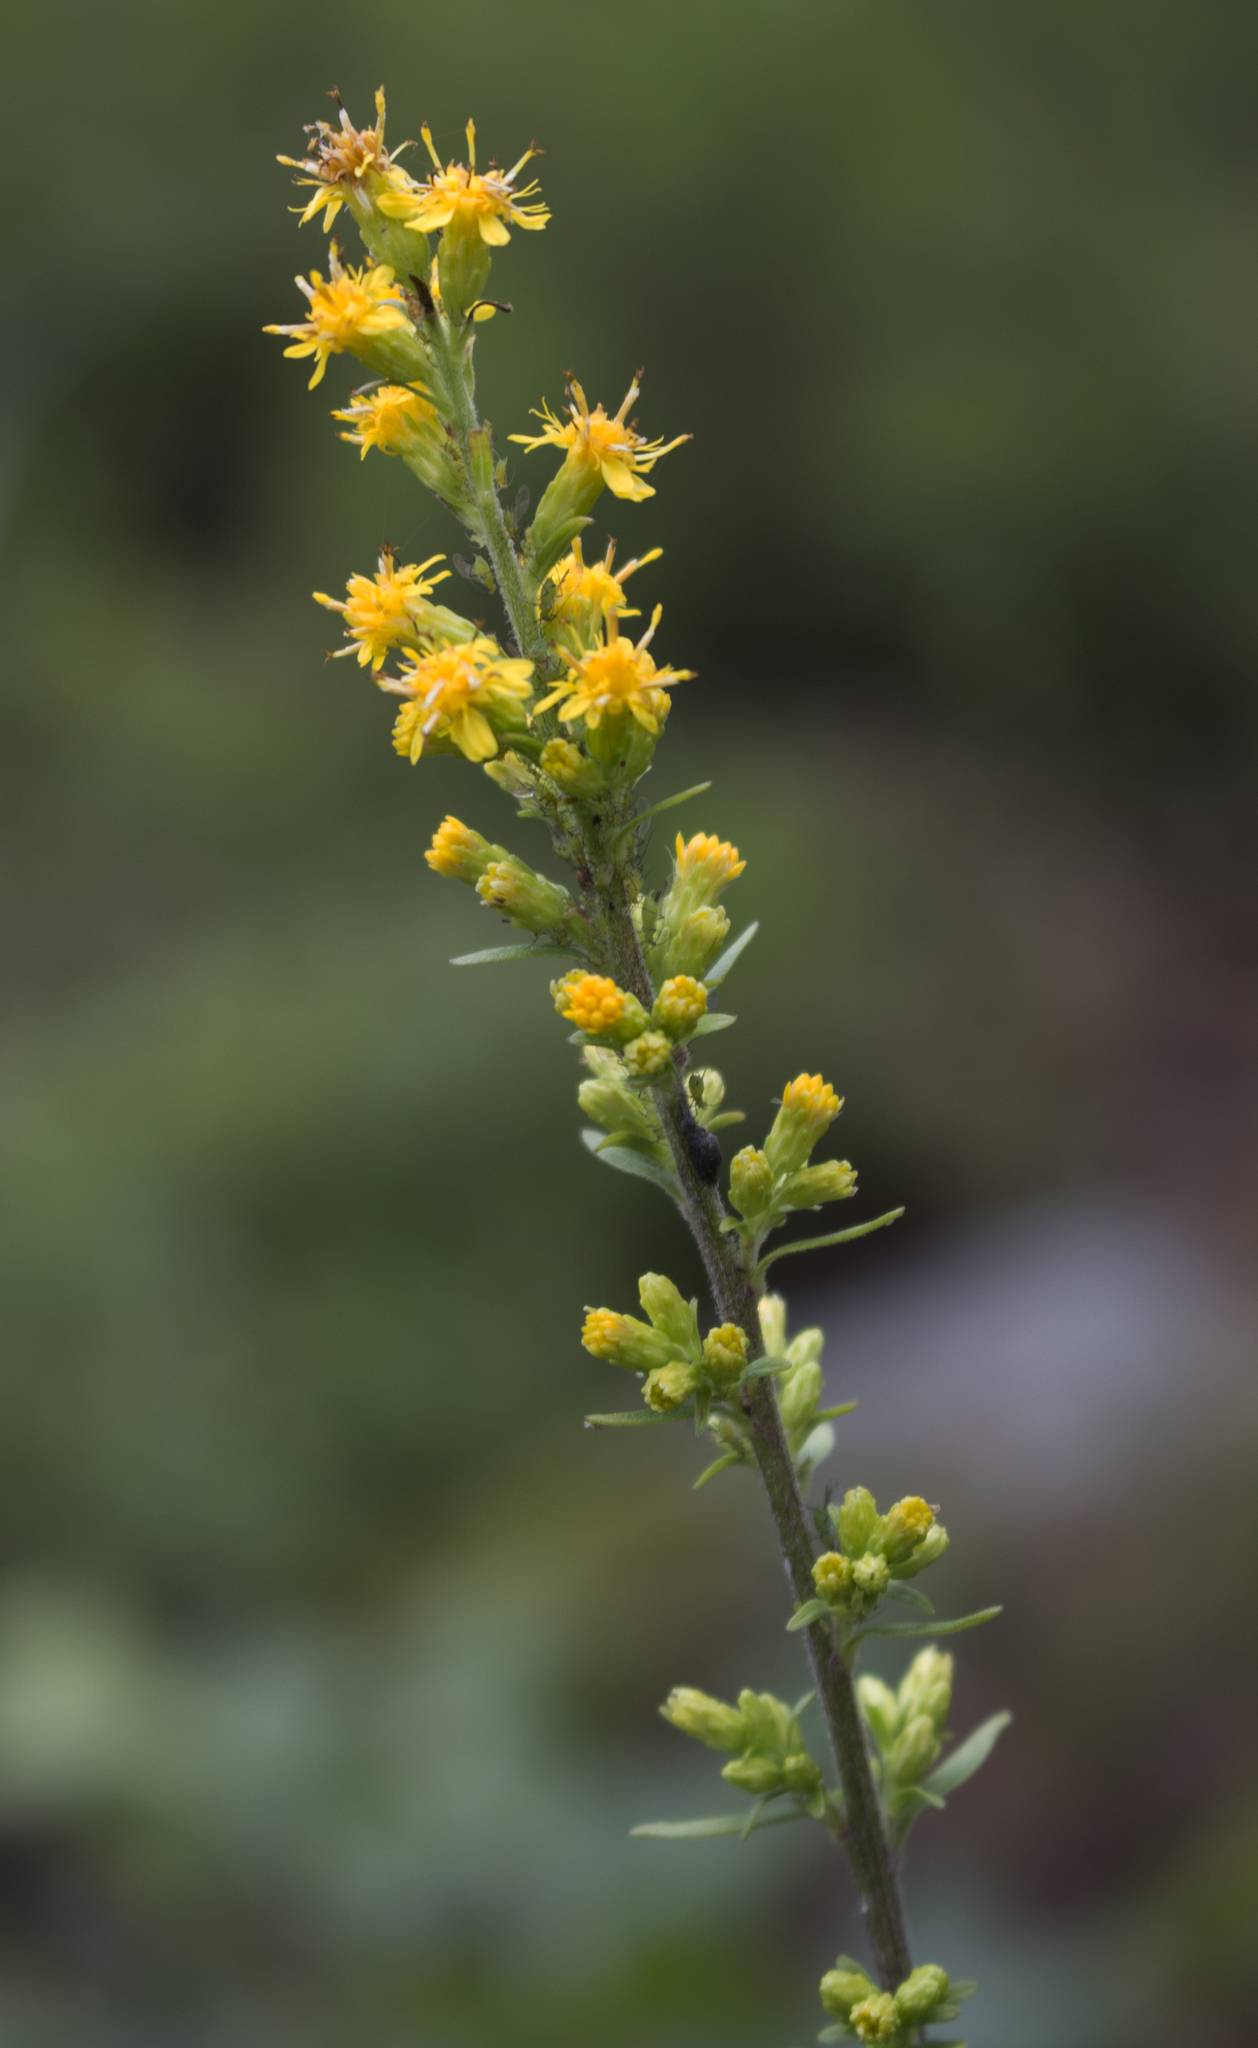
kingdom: Plantae
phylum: Tracheophyta
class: Magnoliopsida
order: Asterales
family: Asteraceae
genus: Solidago
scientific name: Solidago hispida
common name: Hairy goldenrod
